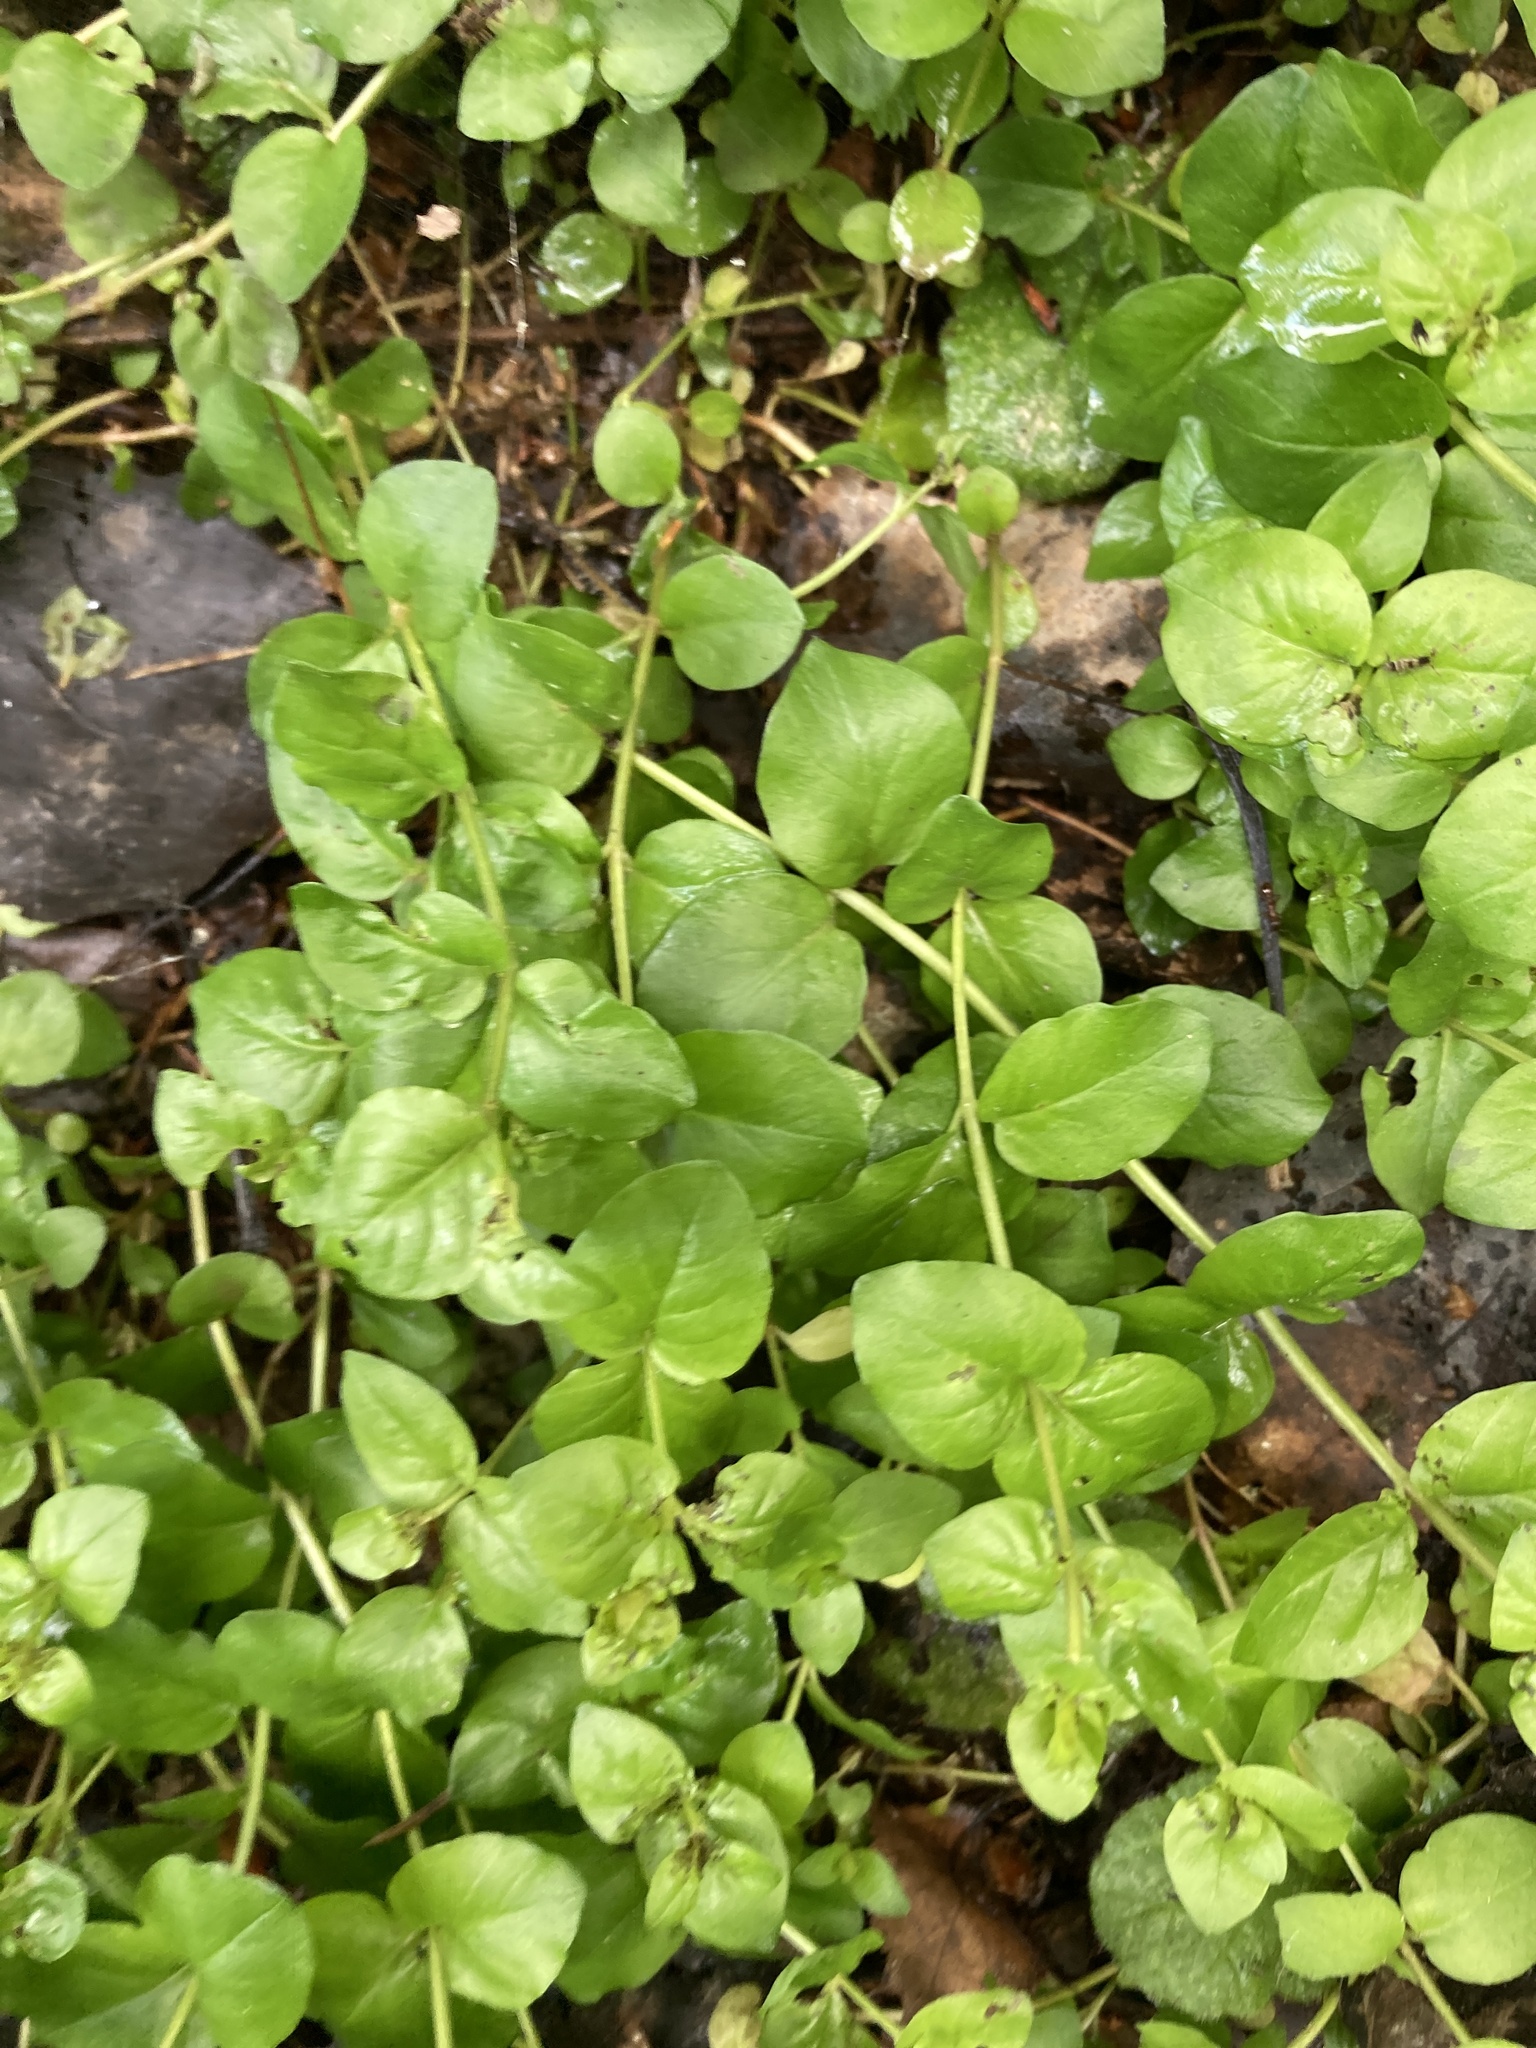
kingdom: Plantae
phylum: Tracheophyta
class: Magnoliopsida
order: Ericales
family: Primulaceae
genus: Lysimachia
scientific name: Lysimachia nummularia
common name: Moneywort
